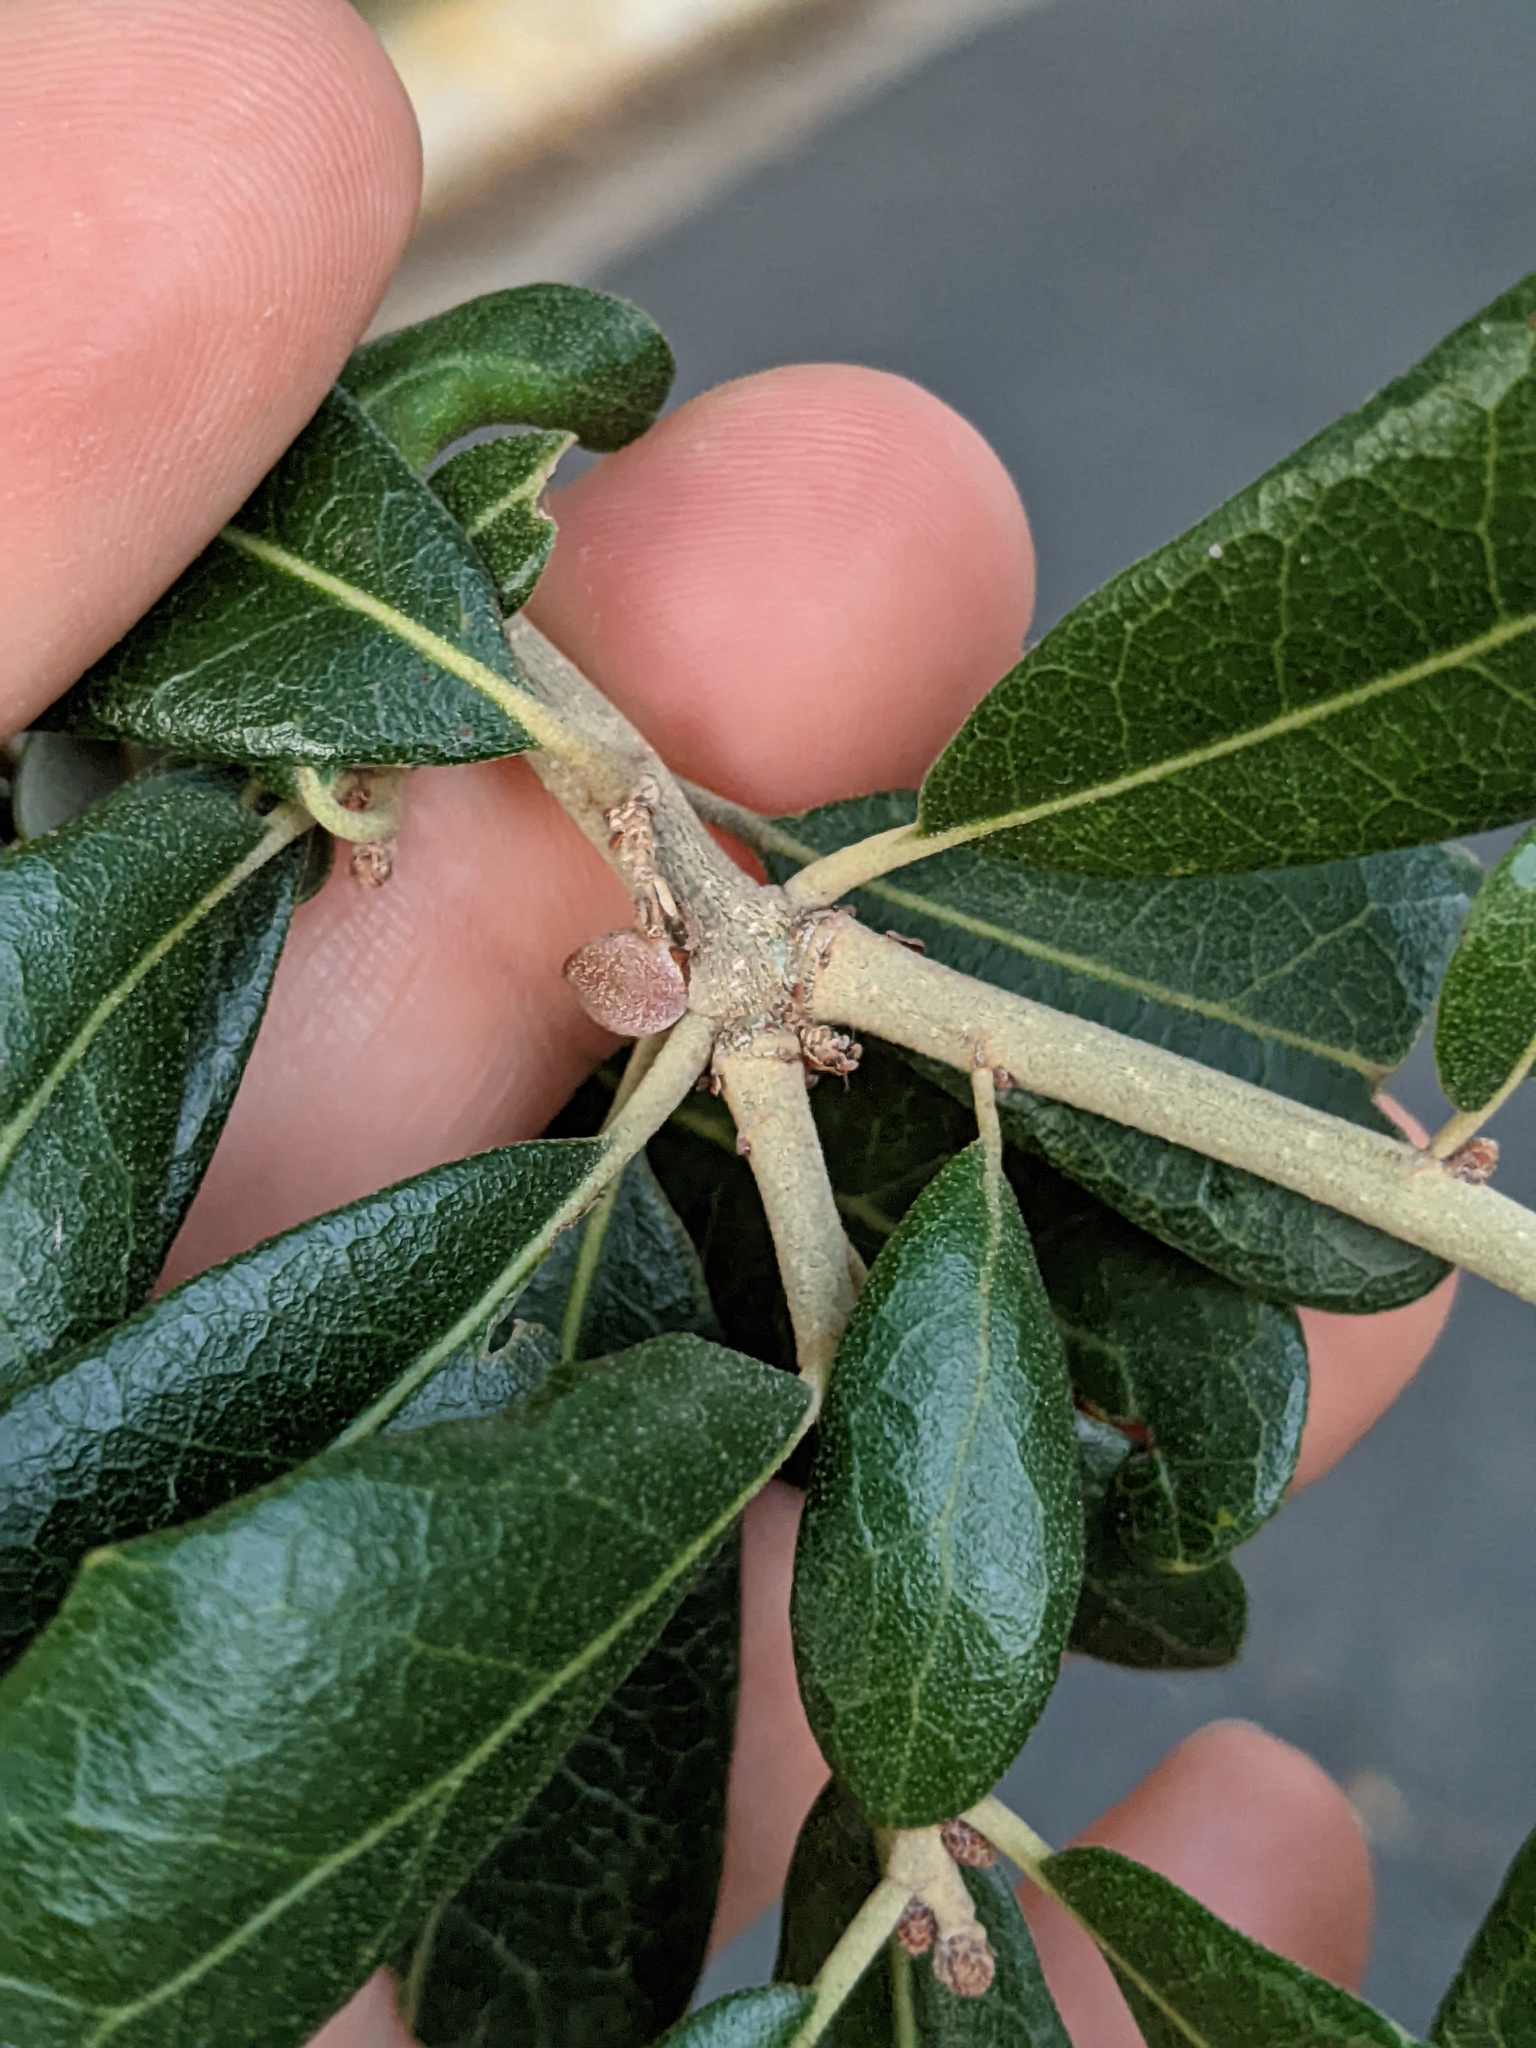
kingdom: Animalia
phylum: Arthropoda
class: Insecta
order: Hymenoptera
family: Cynipidae
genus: Disholcaspis
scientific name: Disholcaspis
